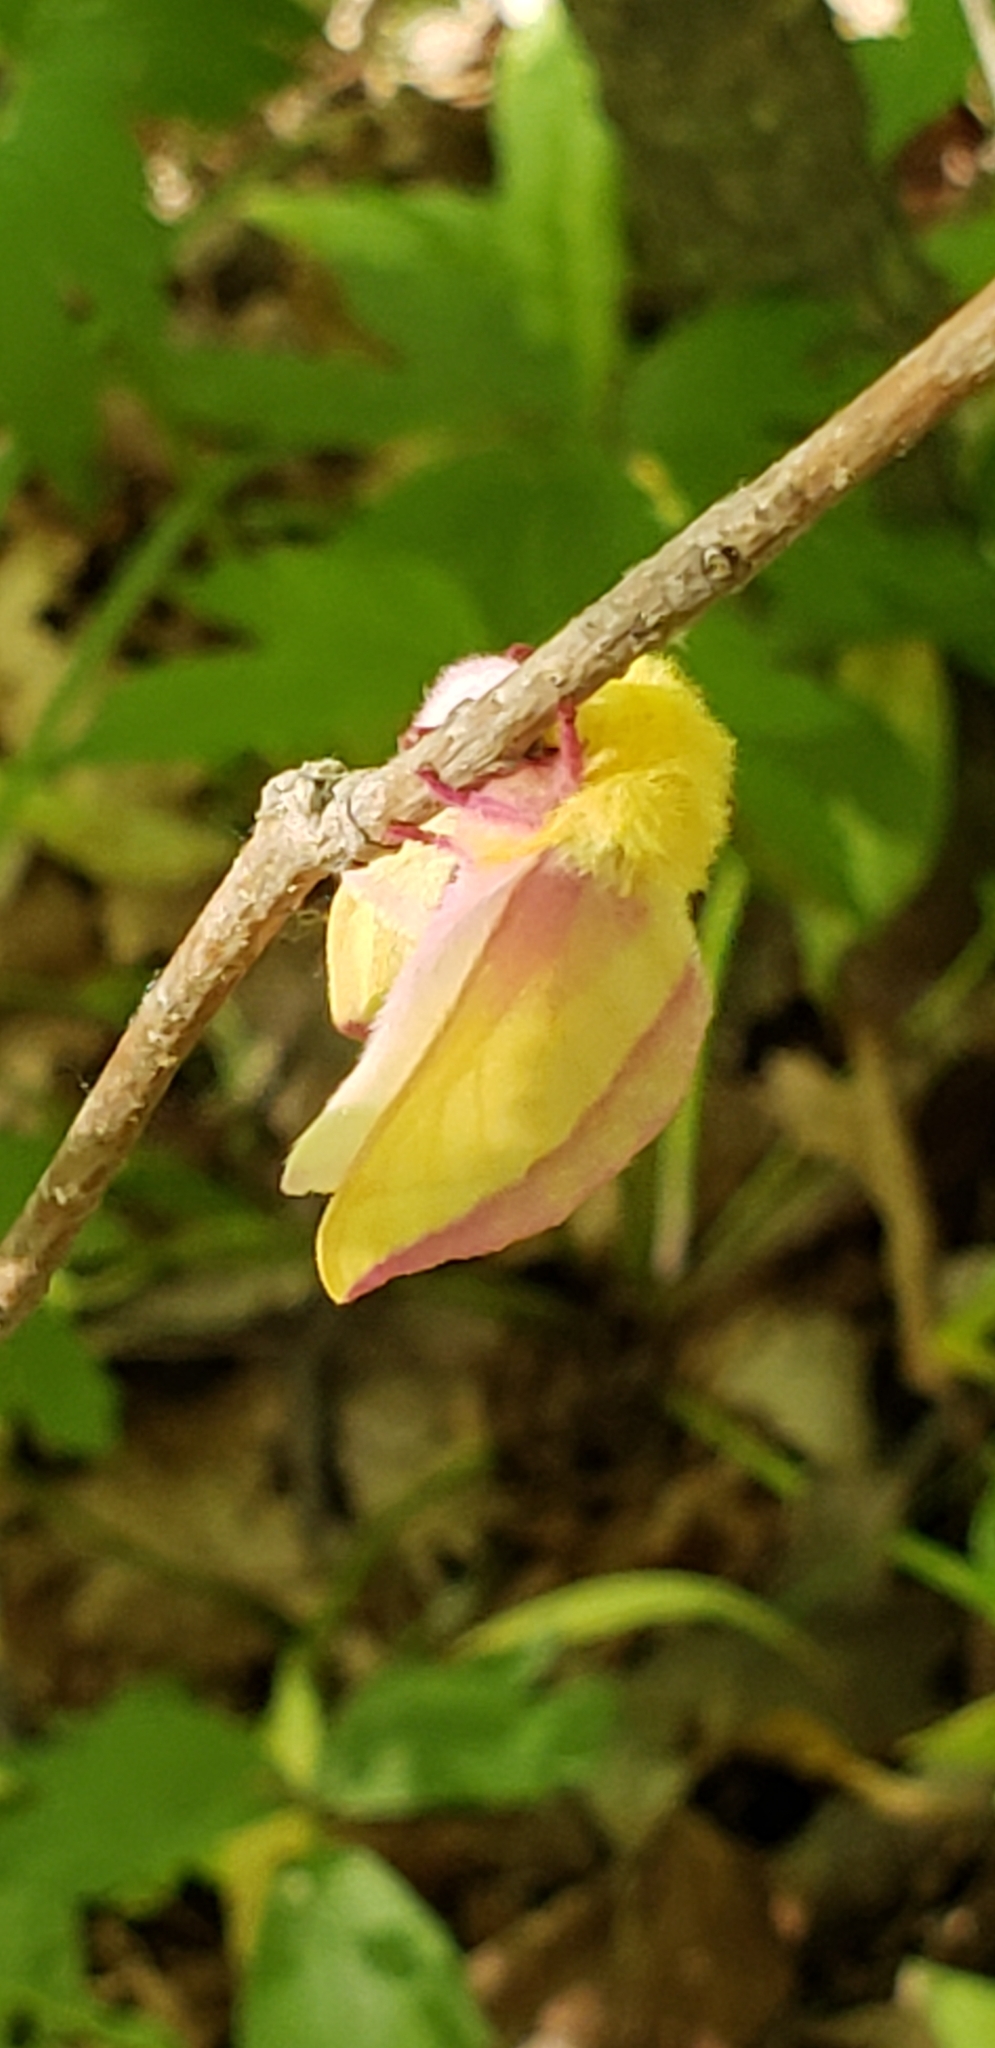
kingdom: Animalia
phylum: Arthropoda
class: Insecta
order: Lepidoptera
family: Saturniidae
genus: Dryocampa
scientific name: Dryocampa rubicunda
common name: Rosy maple moth
